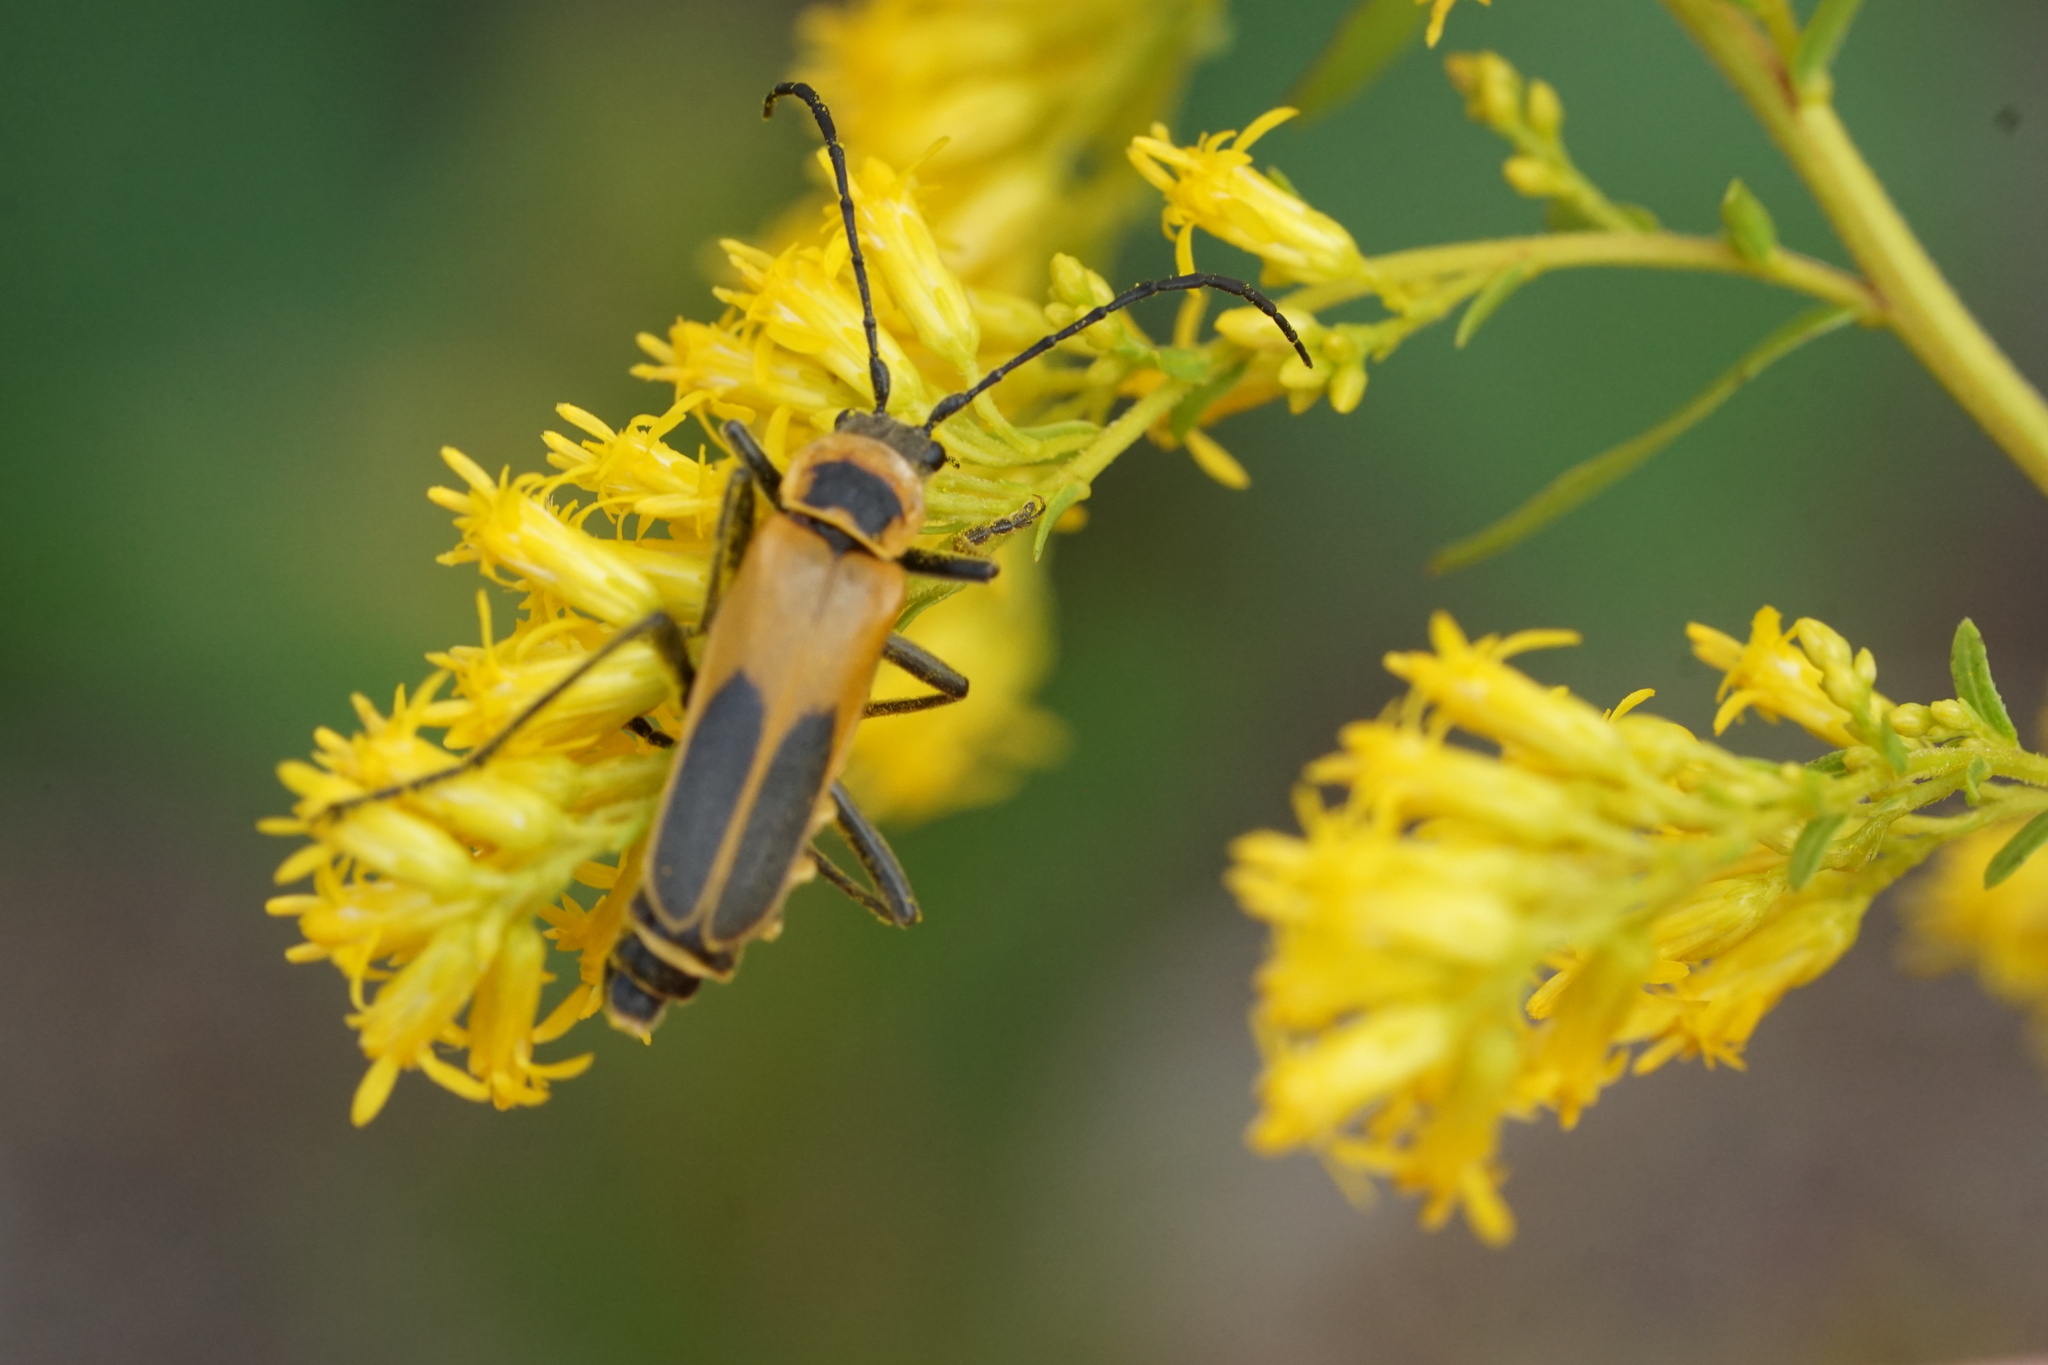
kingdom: Animalia
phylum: Arthropoda
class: Insecta
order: Coleoptera
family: Cantharidae
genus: Chauliognathus
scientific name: Chauliognathus pensylvanicus
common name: Goldenrod soldier beetle
